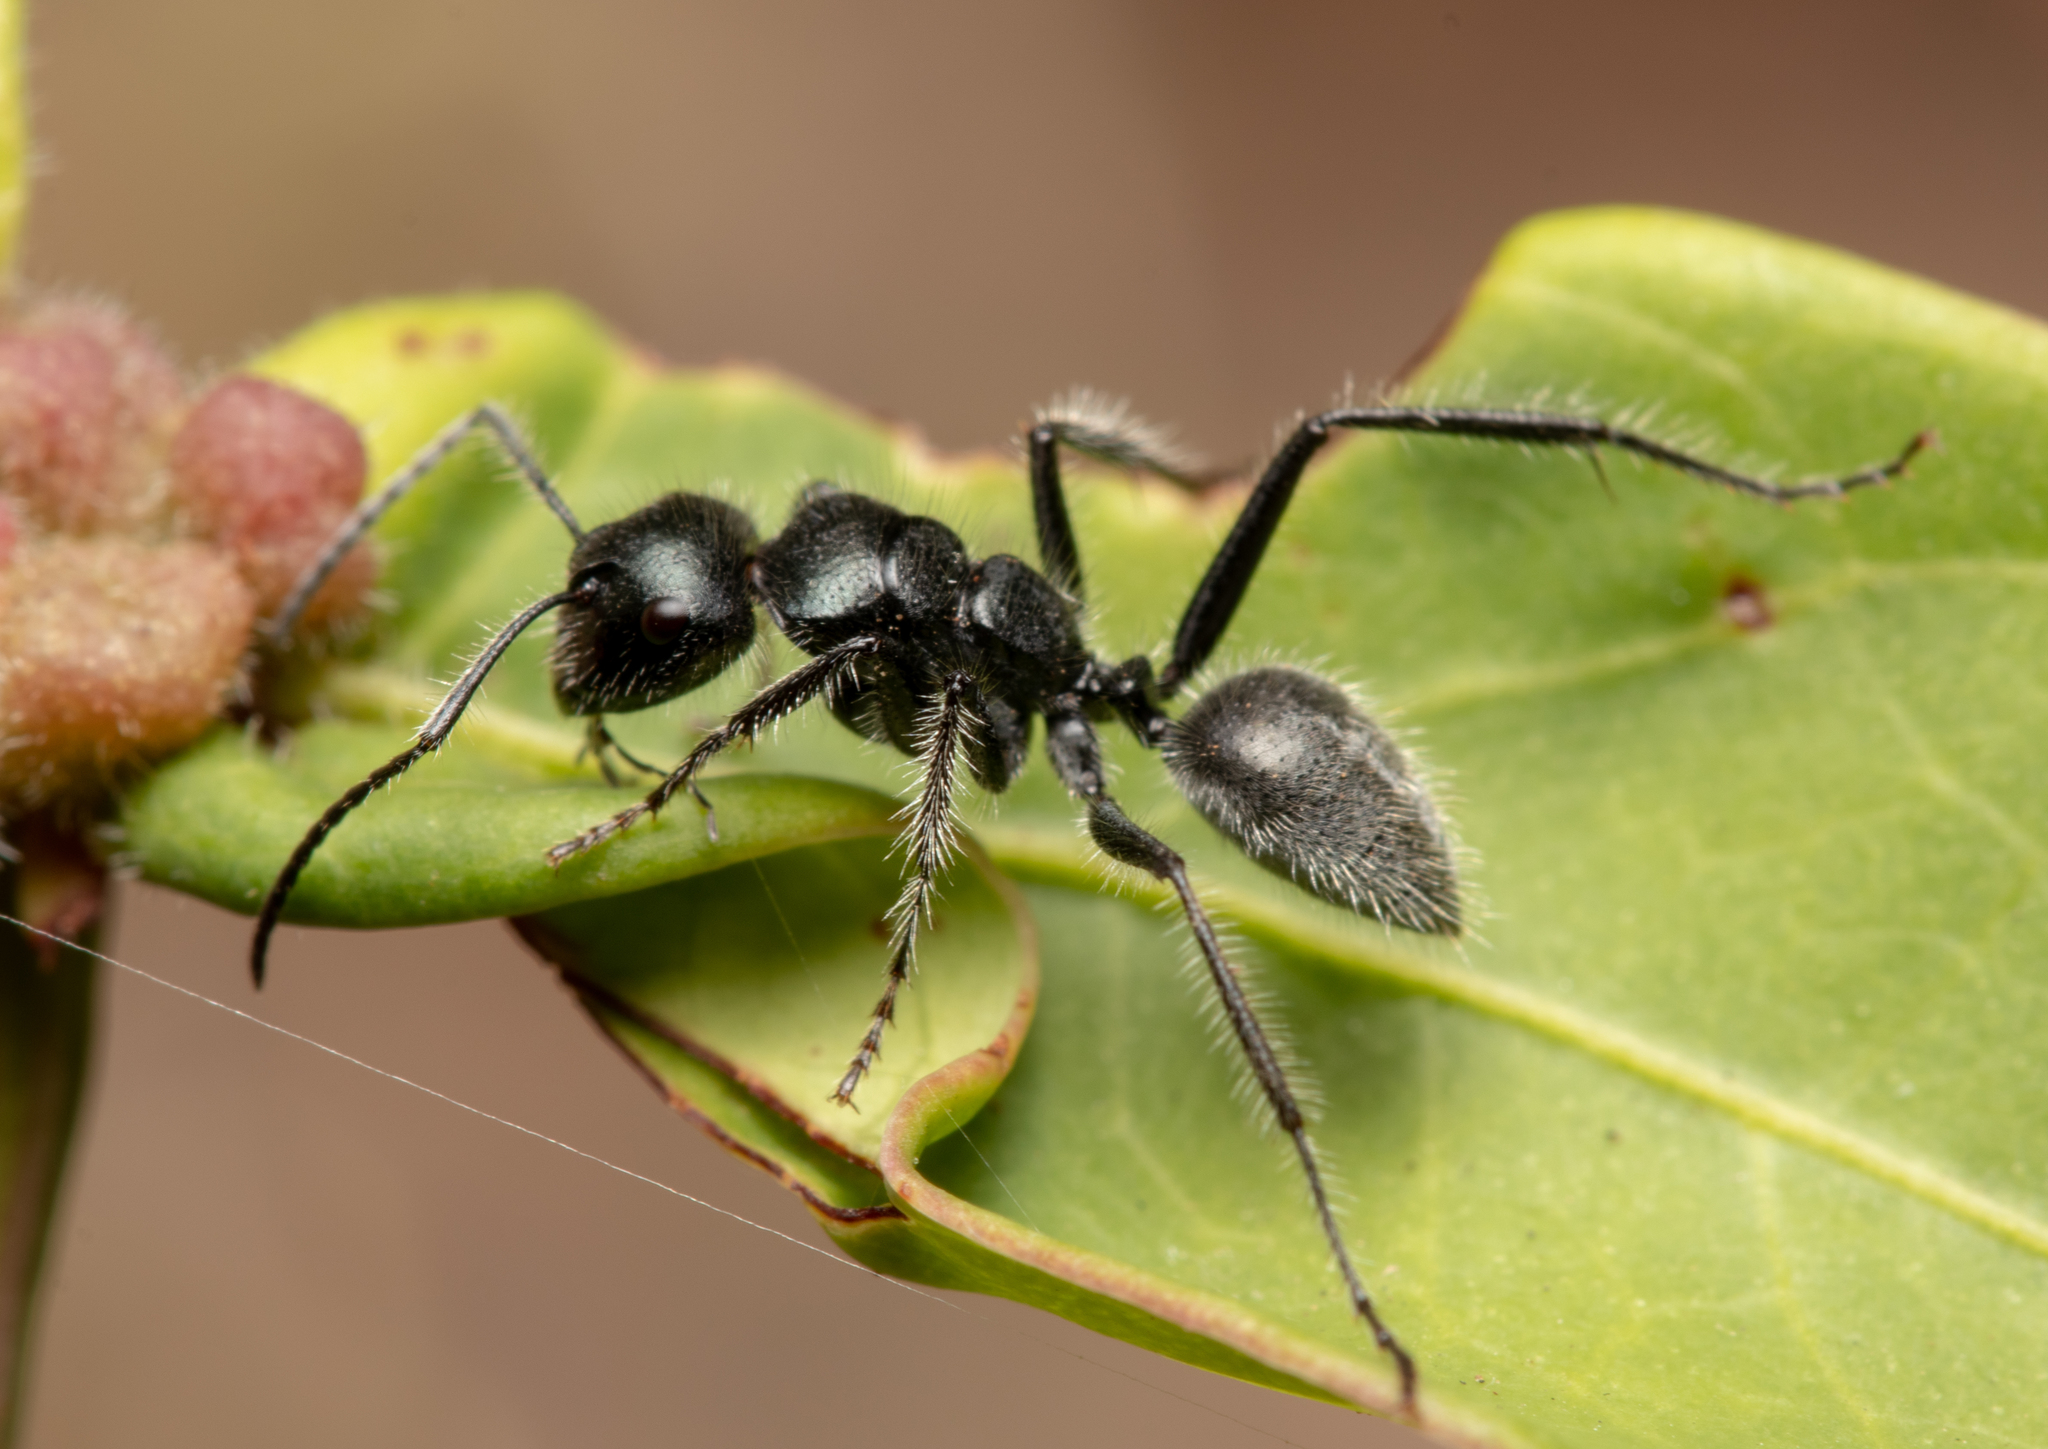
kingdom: Animalia
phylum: Arthropoda
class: Insecta
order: Hymenoptera
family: Formicidae
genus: Calomyrmex
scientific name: Calomyrmex albopilosus
